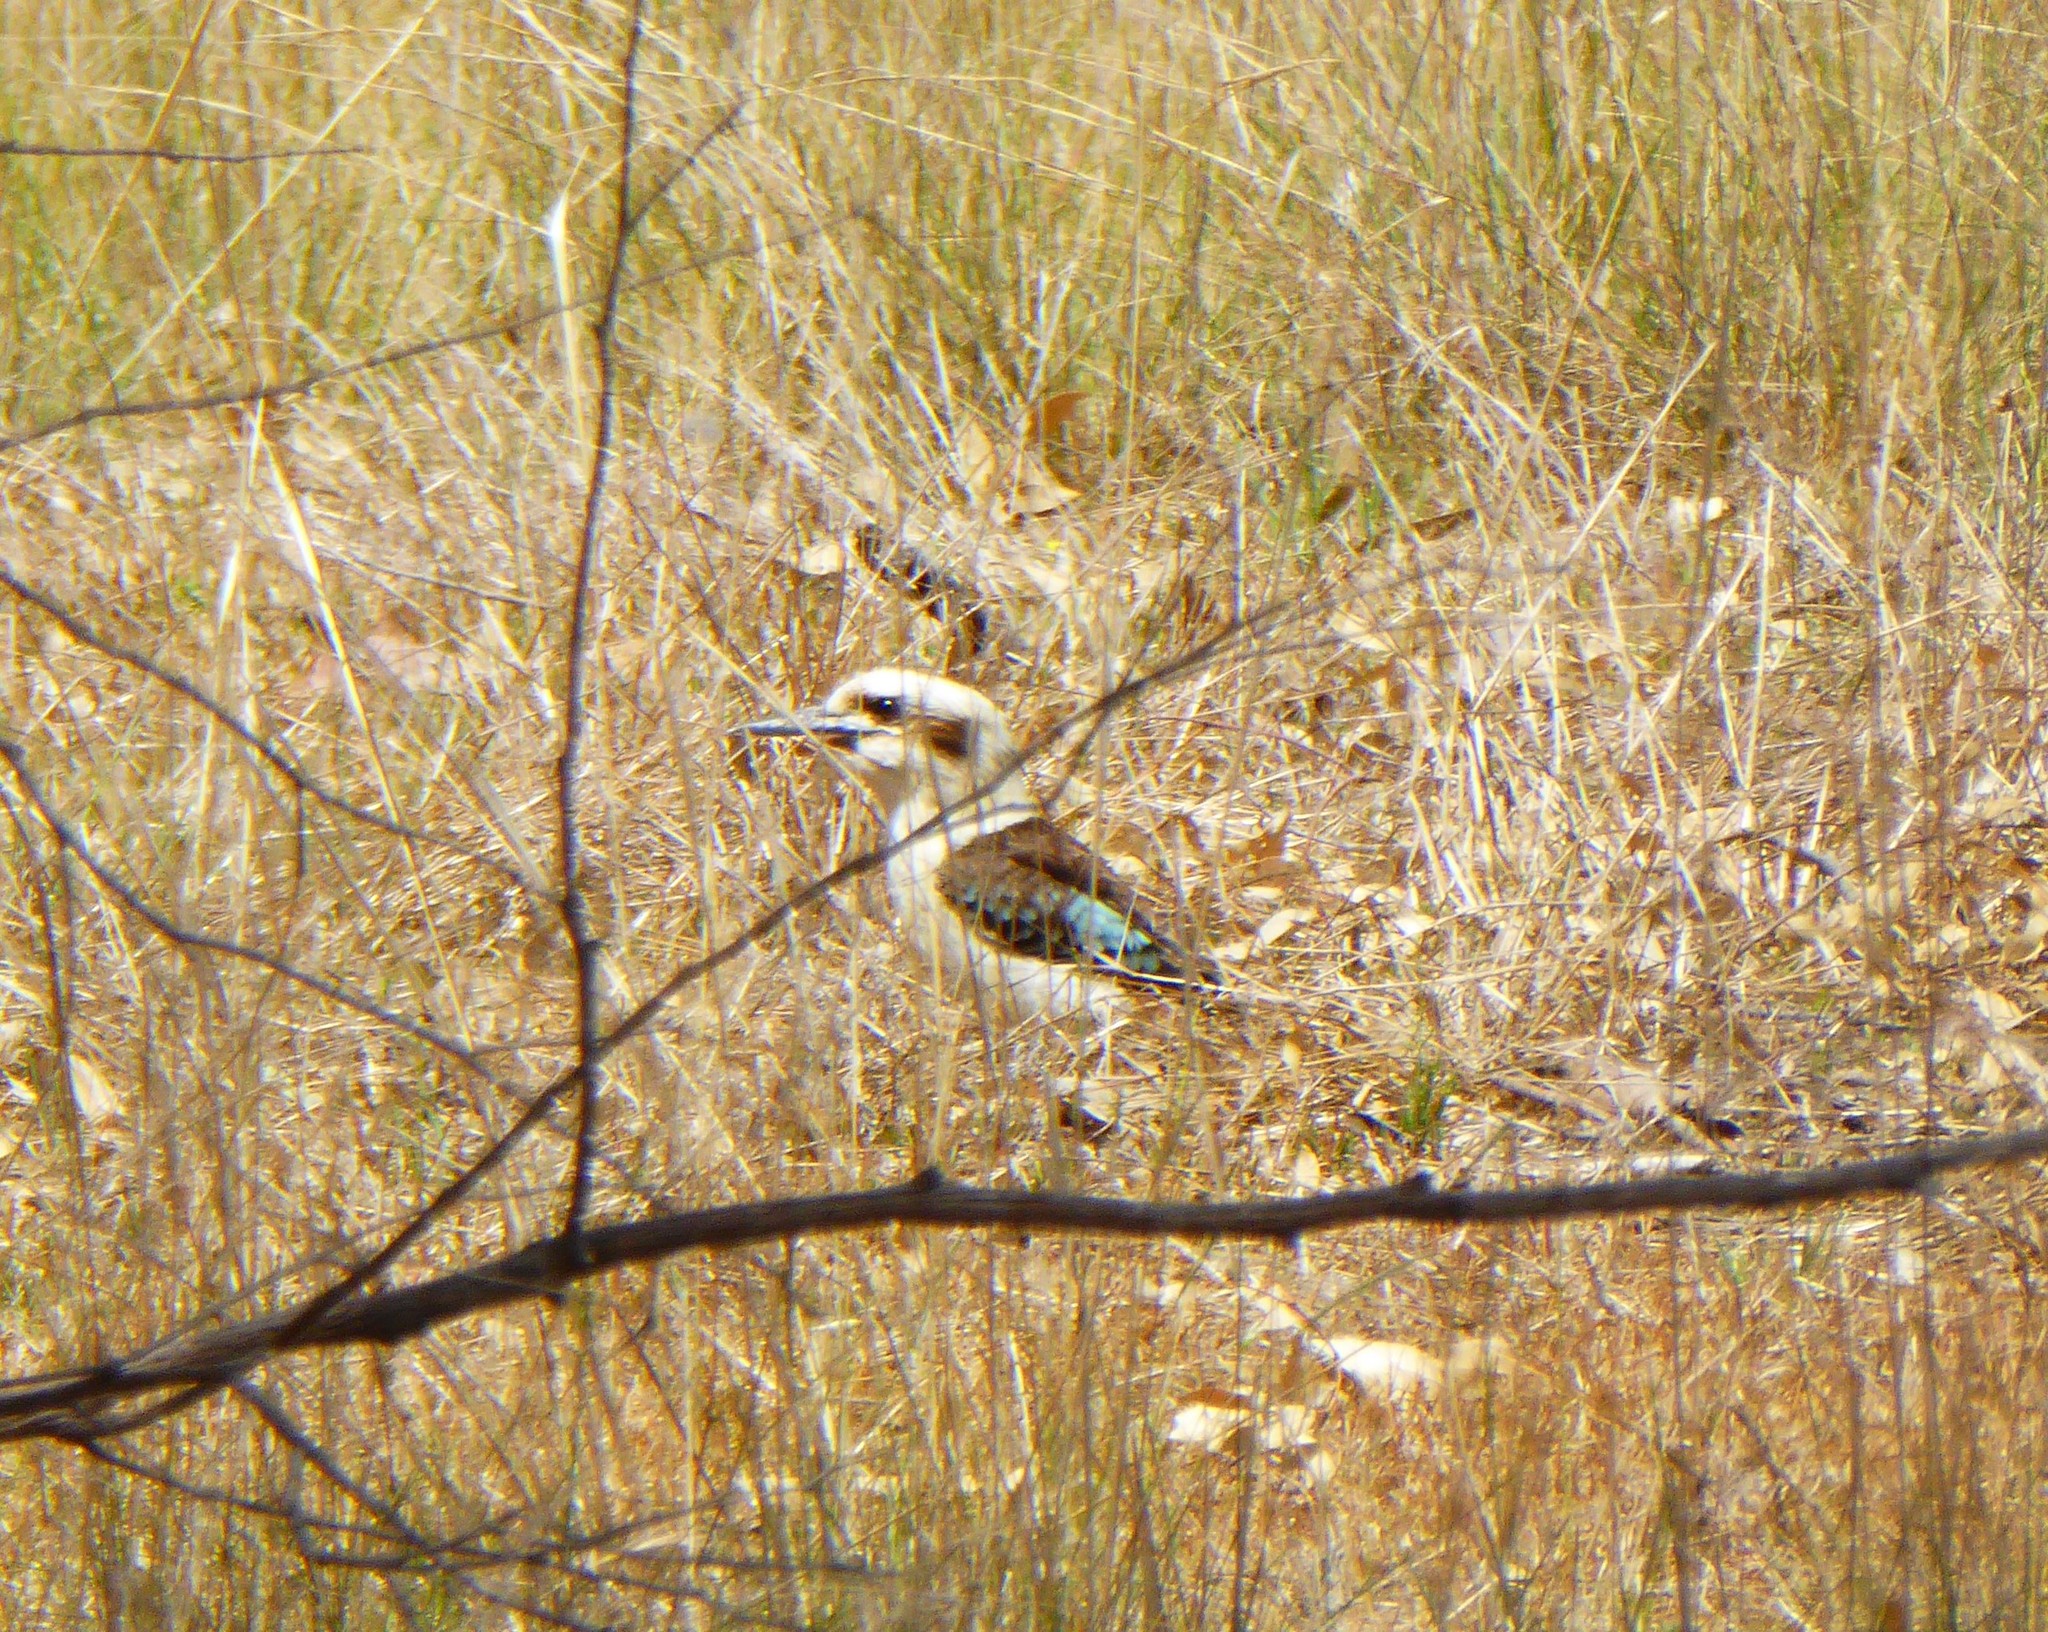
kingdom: Animalia
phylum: Chordata
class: Aves
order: Coraciiformes
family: Alcedinidae
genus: Dacelo
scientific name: Dacelo novaeguineae
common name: Laughing kookaburra
